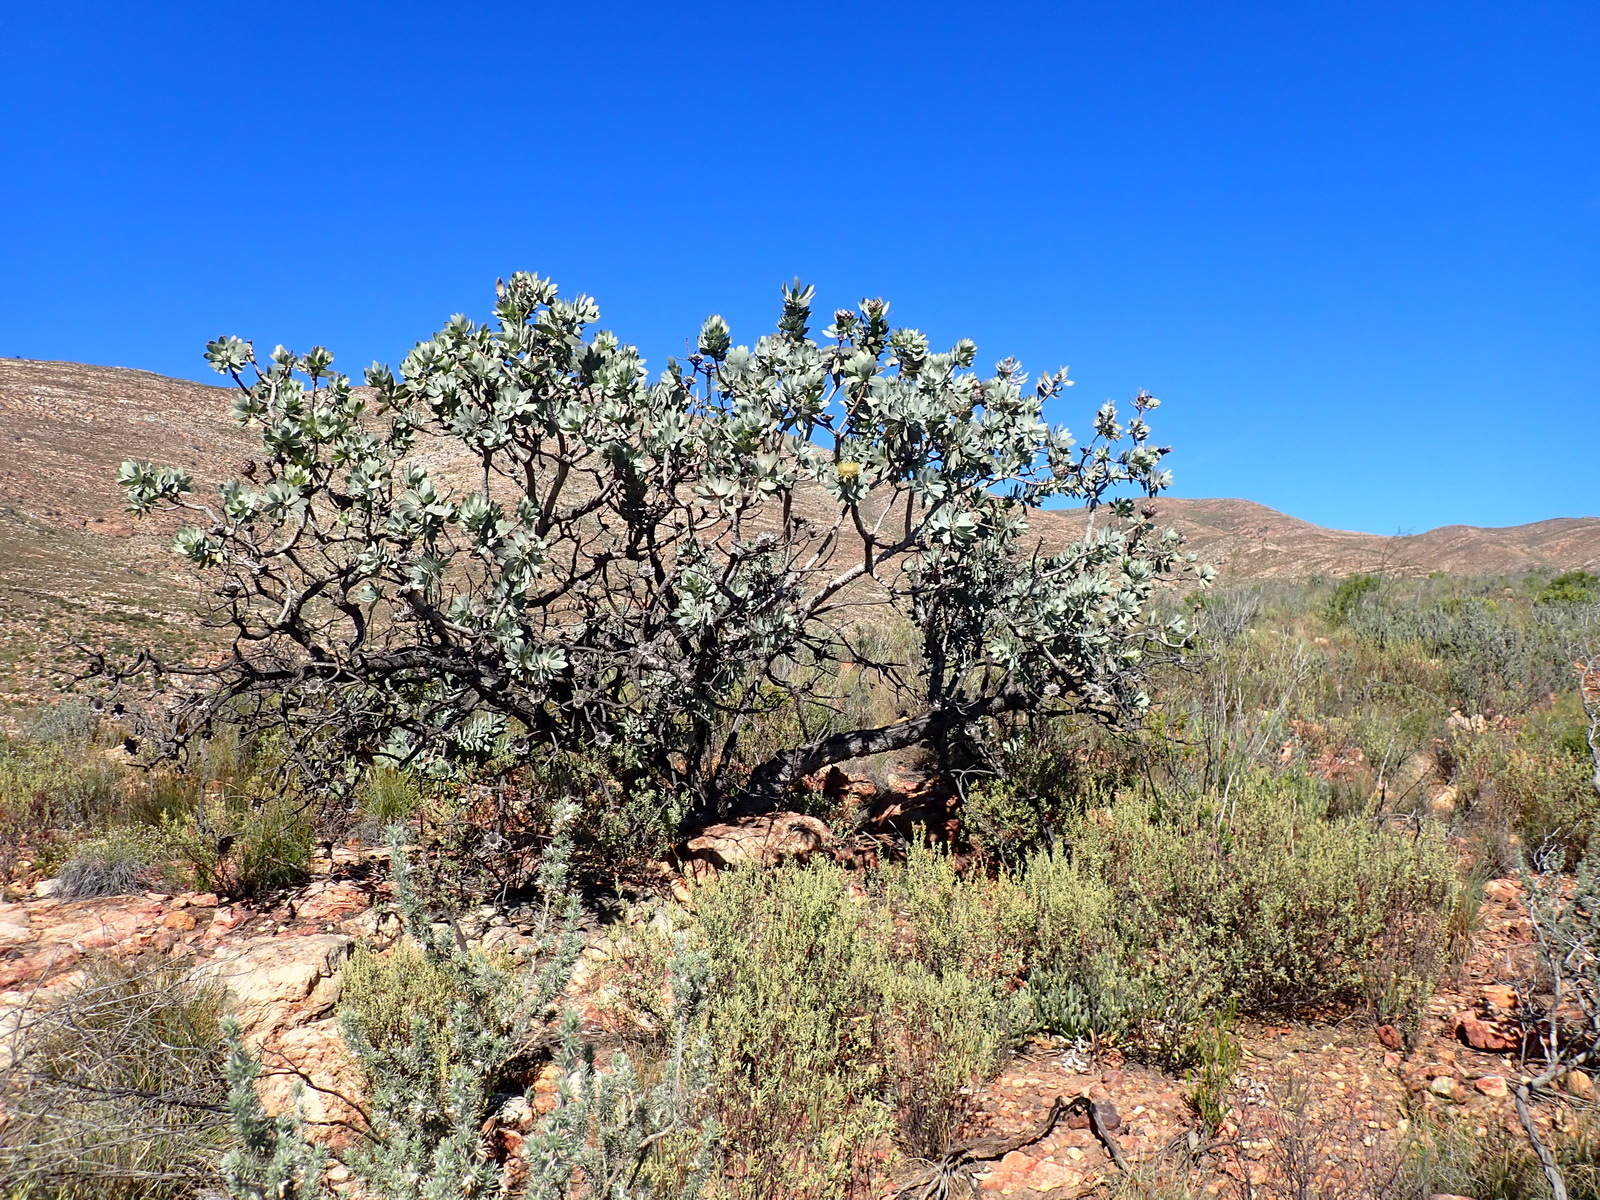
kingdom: Plantae
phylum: Tracheophyta
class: Magnoliopsida
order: Proteales
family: Proteaceae
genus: Protea
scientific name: Protea nitida
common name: Tree protea
